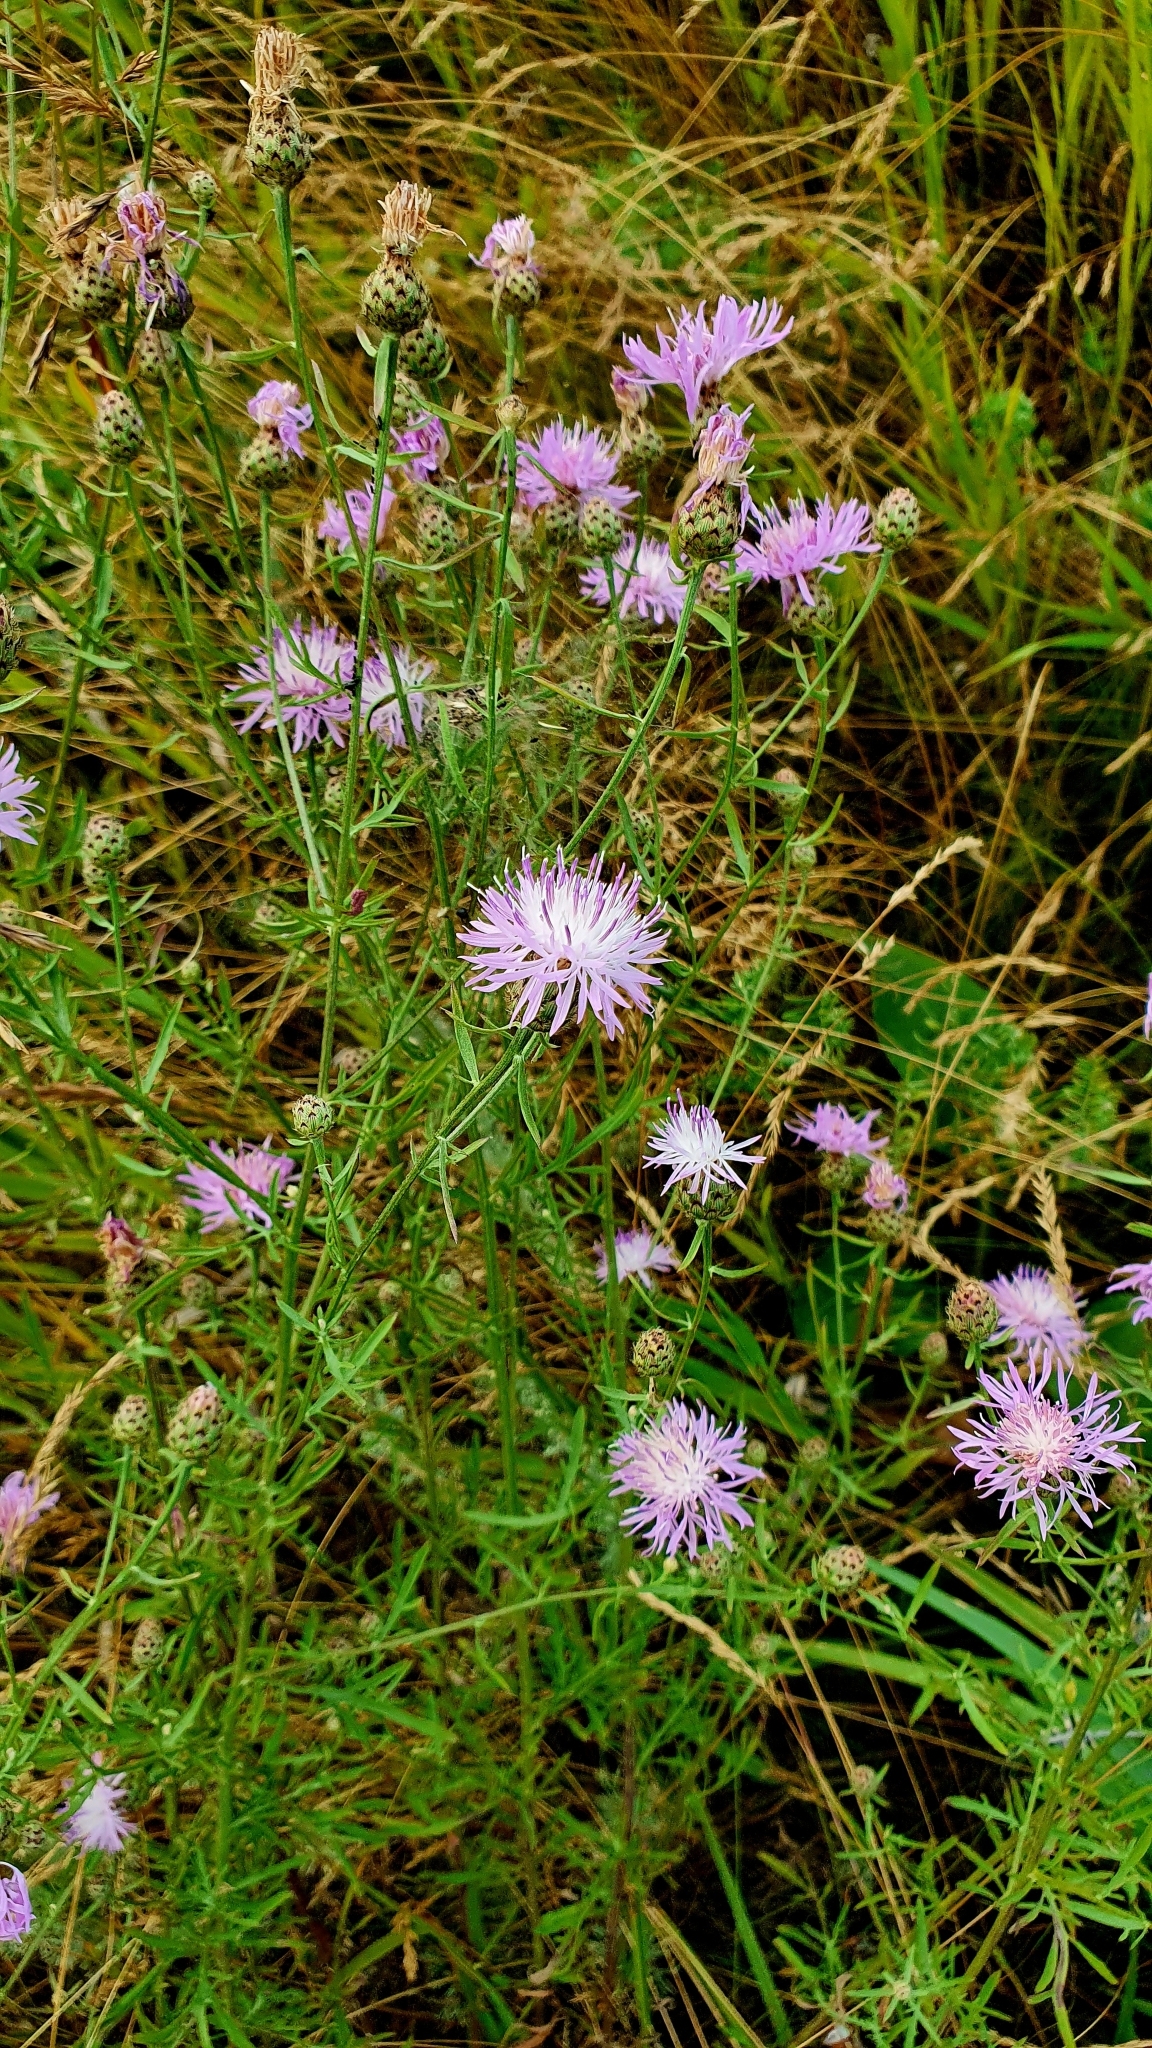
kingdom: Plantae
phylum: Tracheophyta
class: Magnoliopsida
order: Asterales
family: Asteraceae
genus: Centaurea
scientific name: Centaurea stoebe
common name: Spotted knapweed
